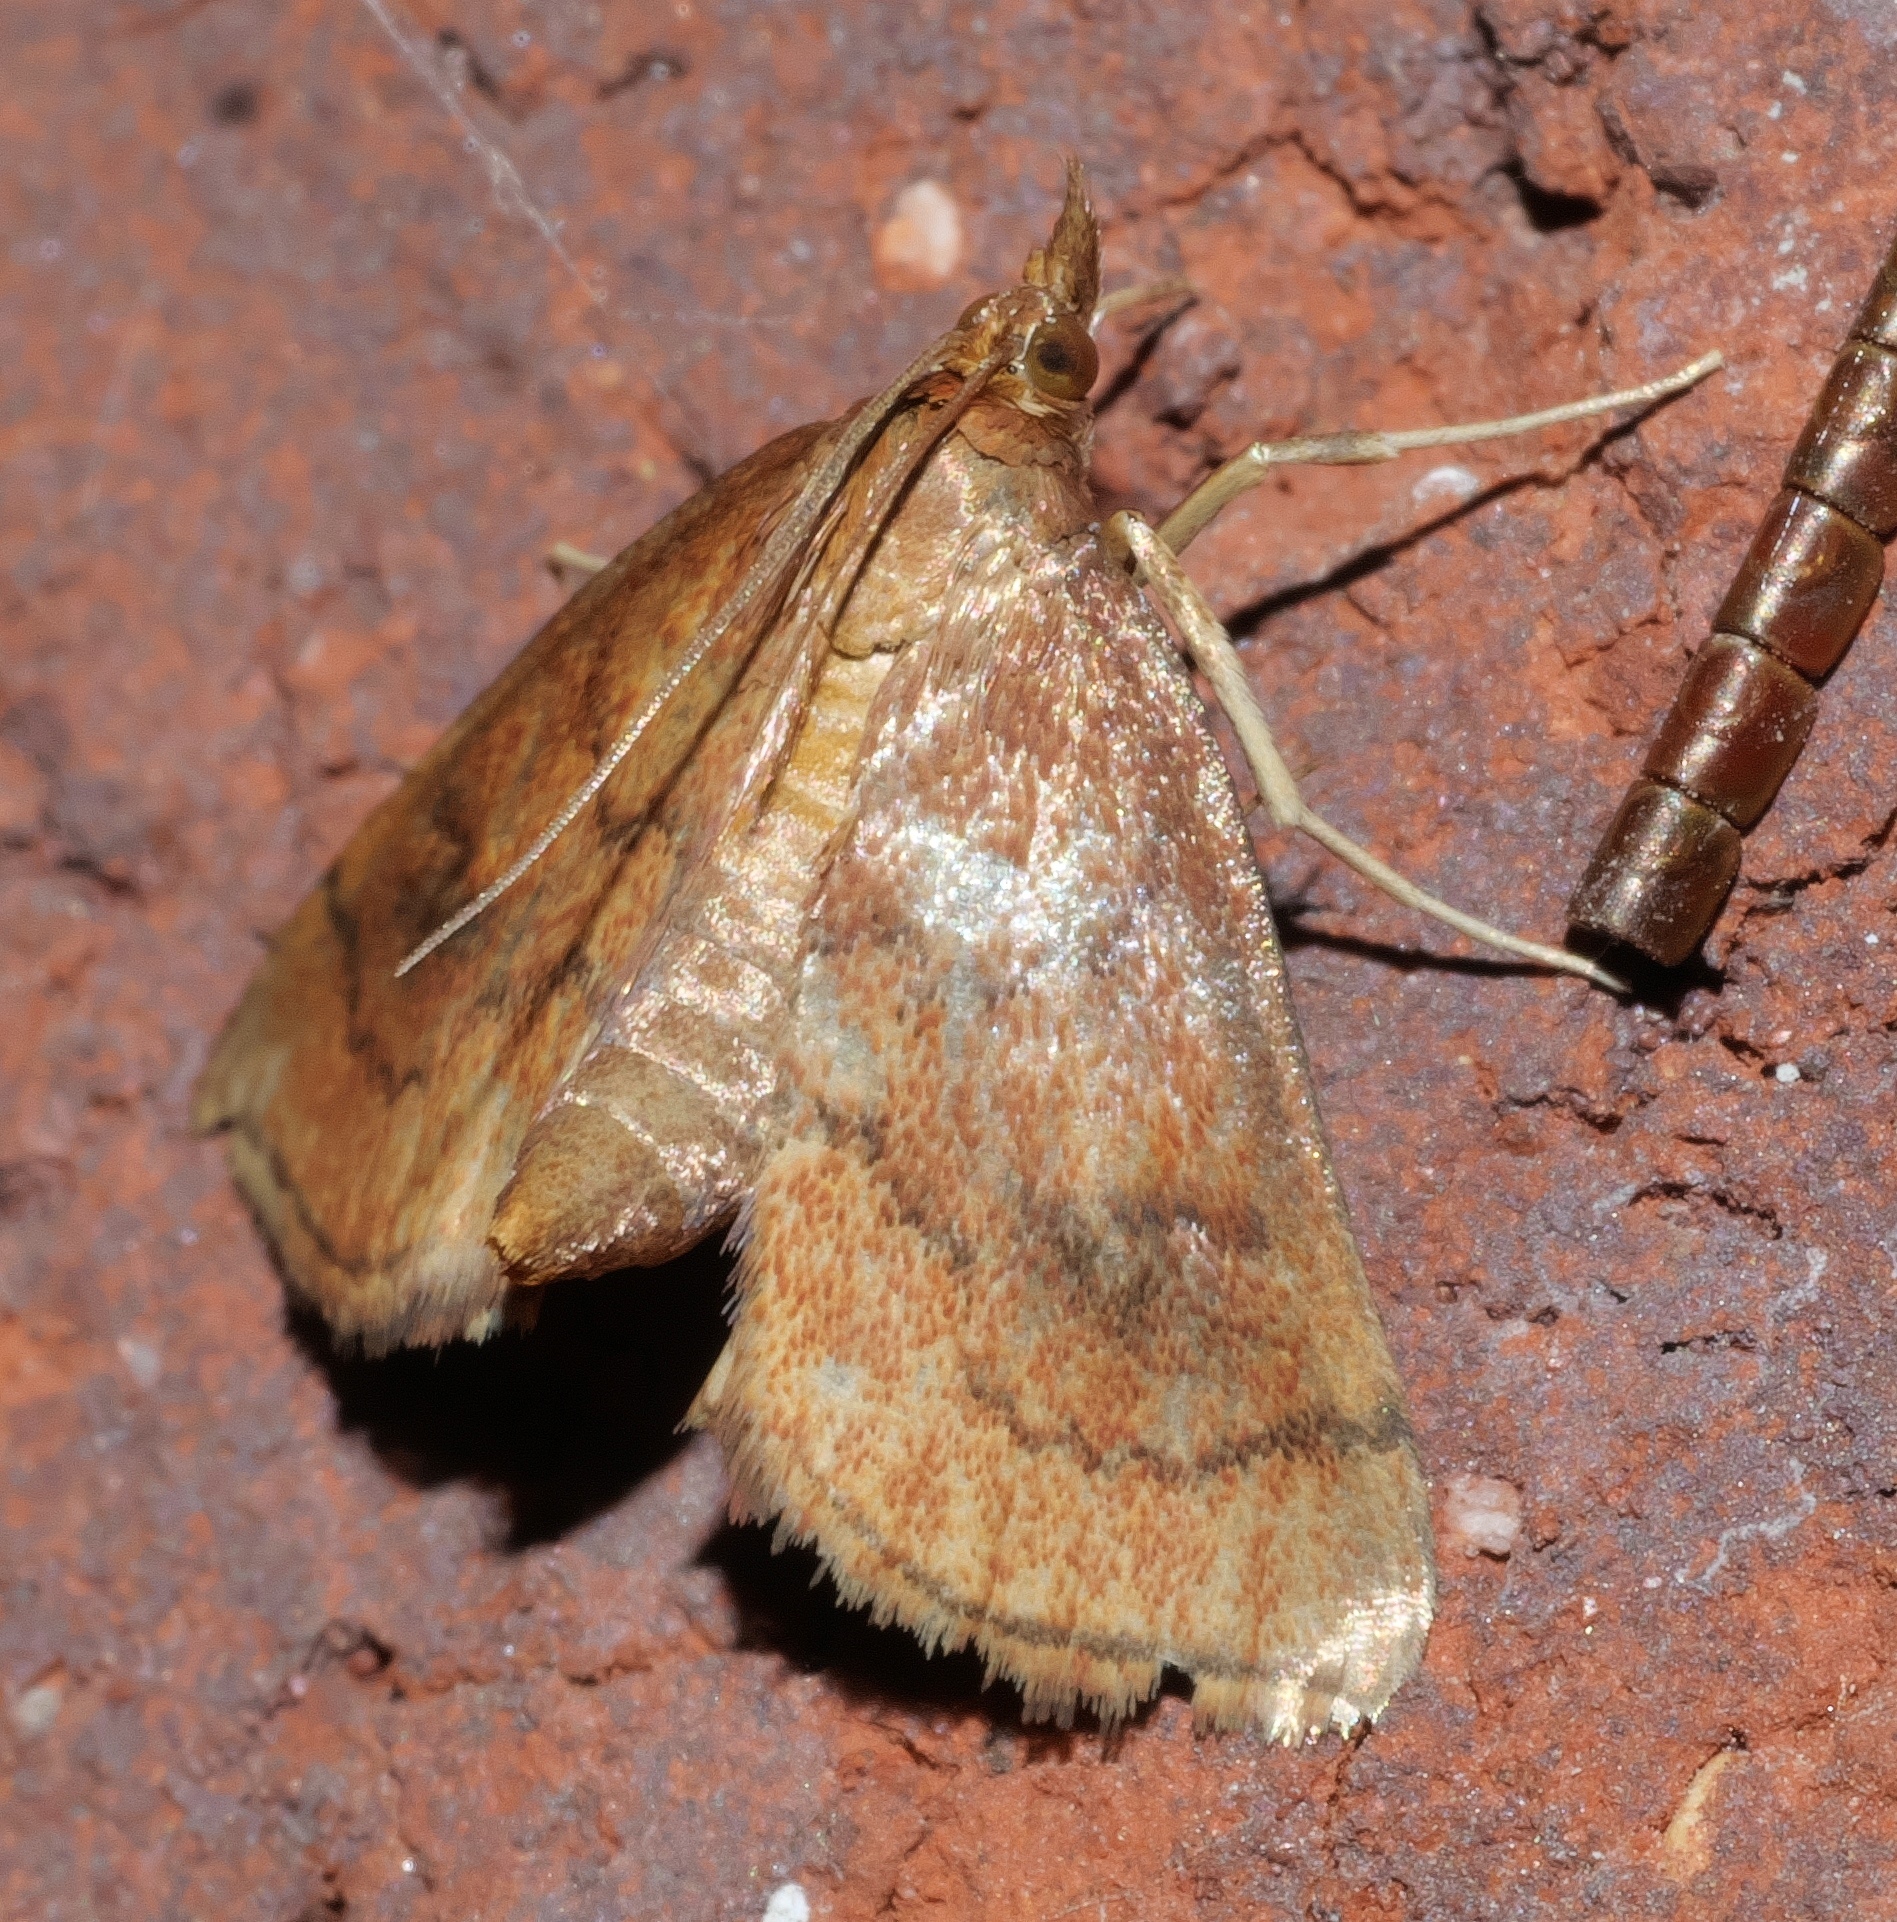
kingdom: Animalia
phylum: Arthropoda
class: Insecta
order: Lepidoptera
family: Crambidae
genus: Fumibotys
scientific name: Fumibotys fumalis
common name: Mint root borer moth
